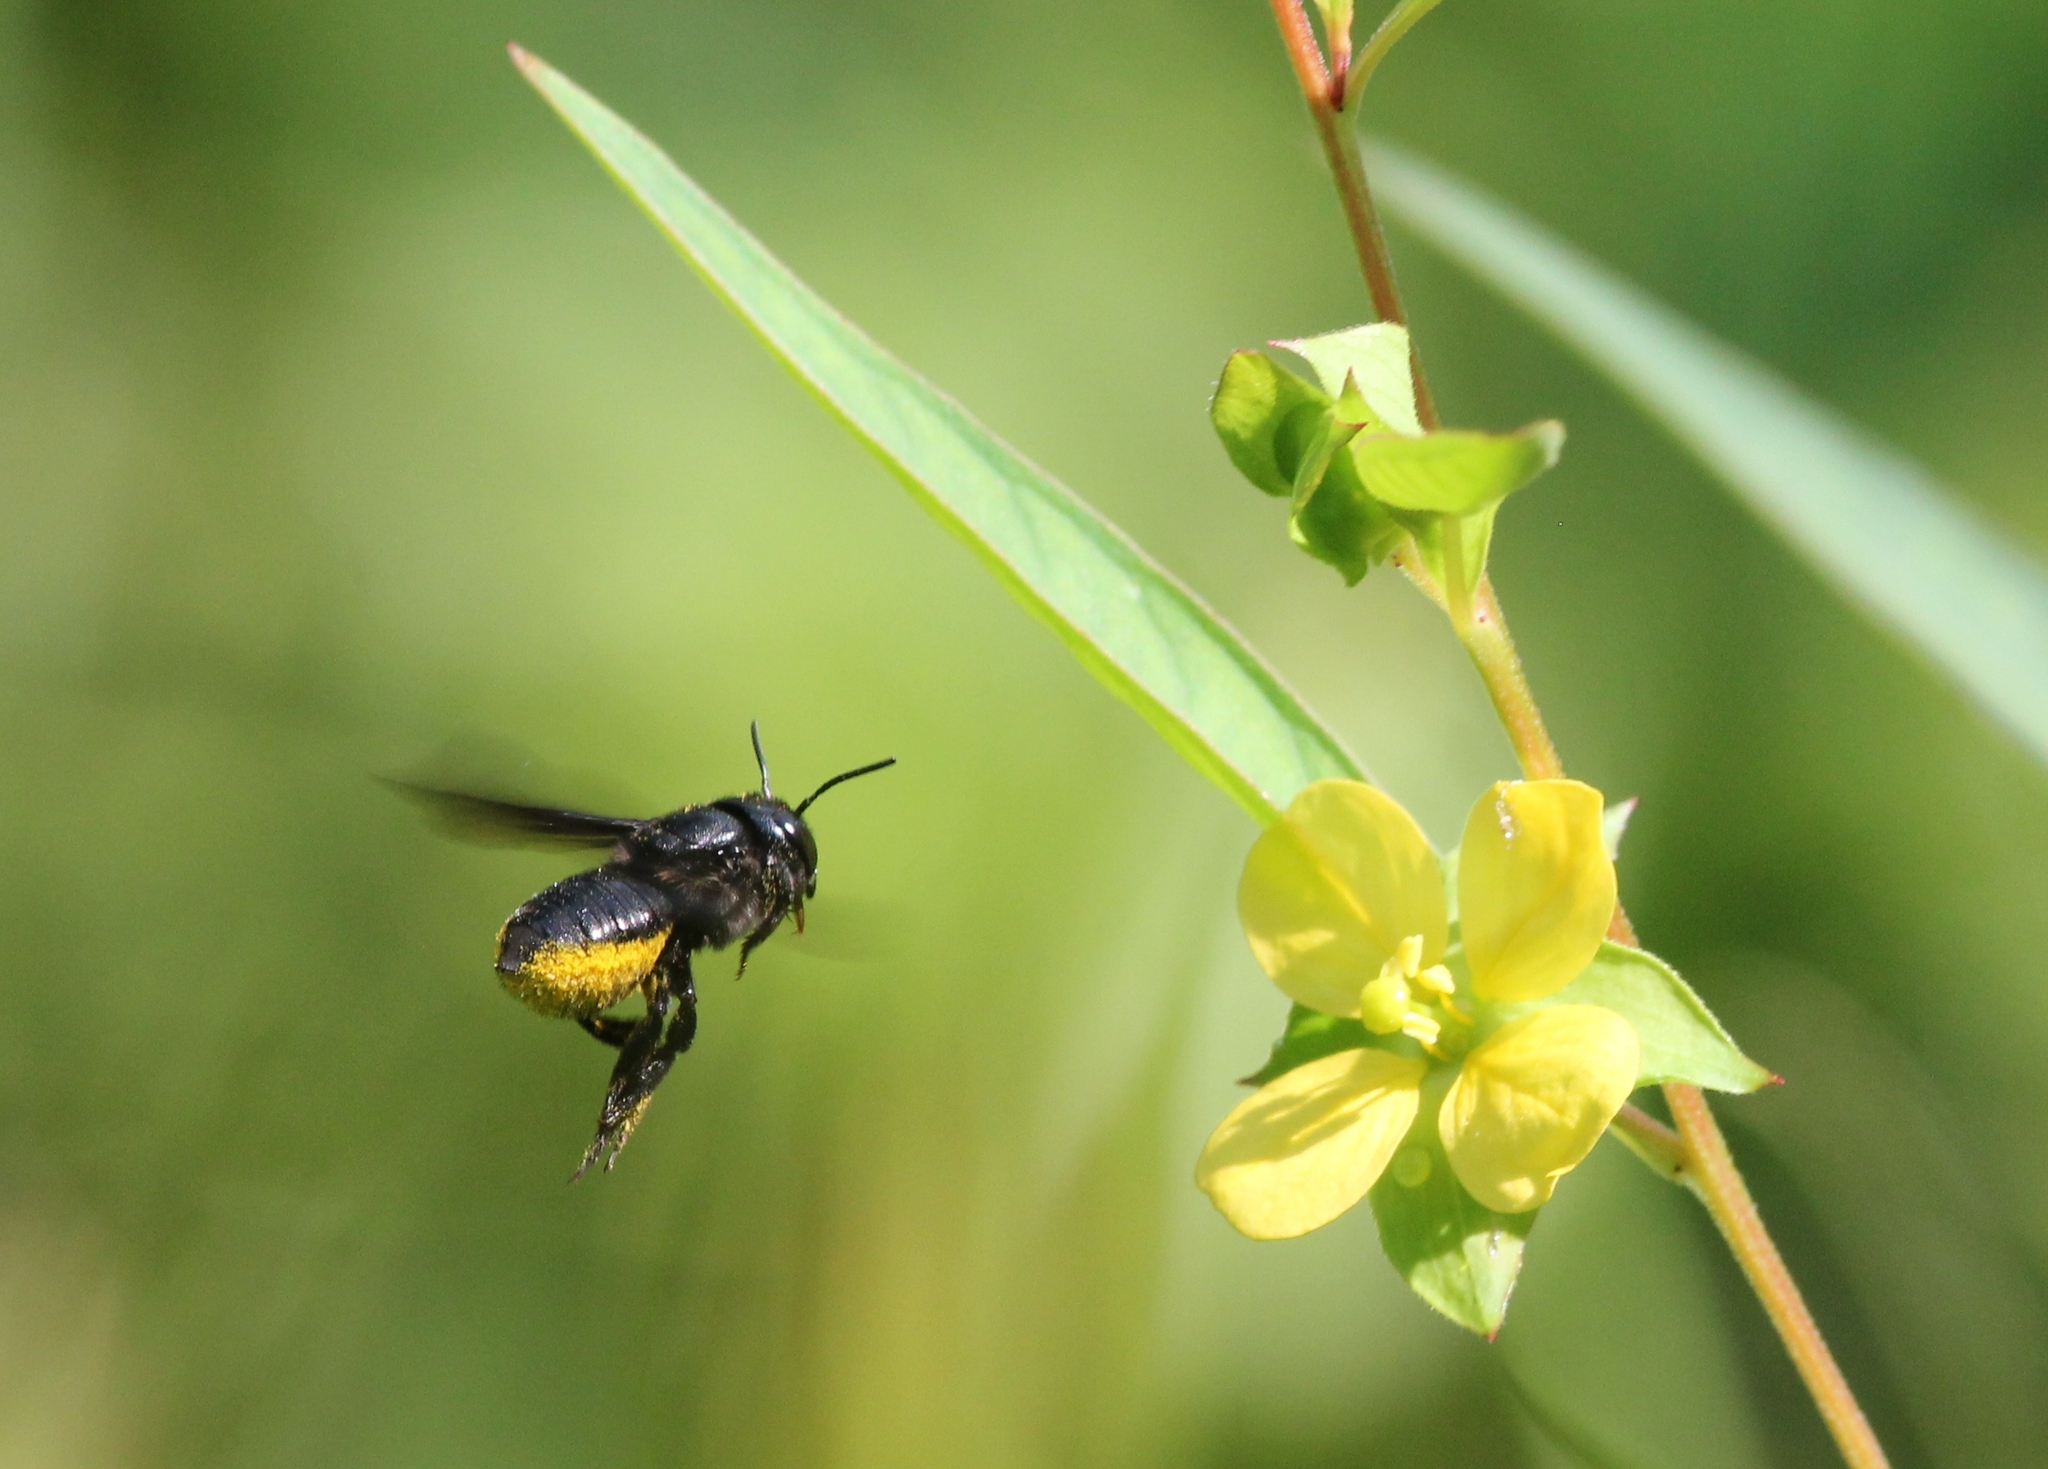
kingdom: Animalia
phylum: Arthropoda
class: Insecta
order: Hymenoptera
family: Megachilidae
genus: Megachile
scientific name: Megachile xylocopoides
